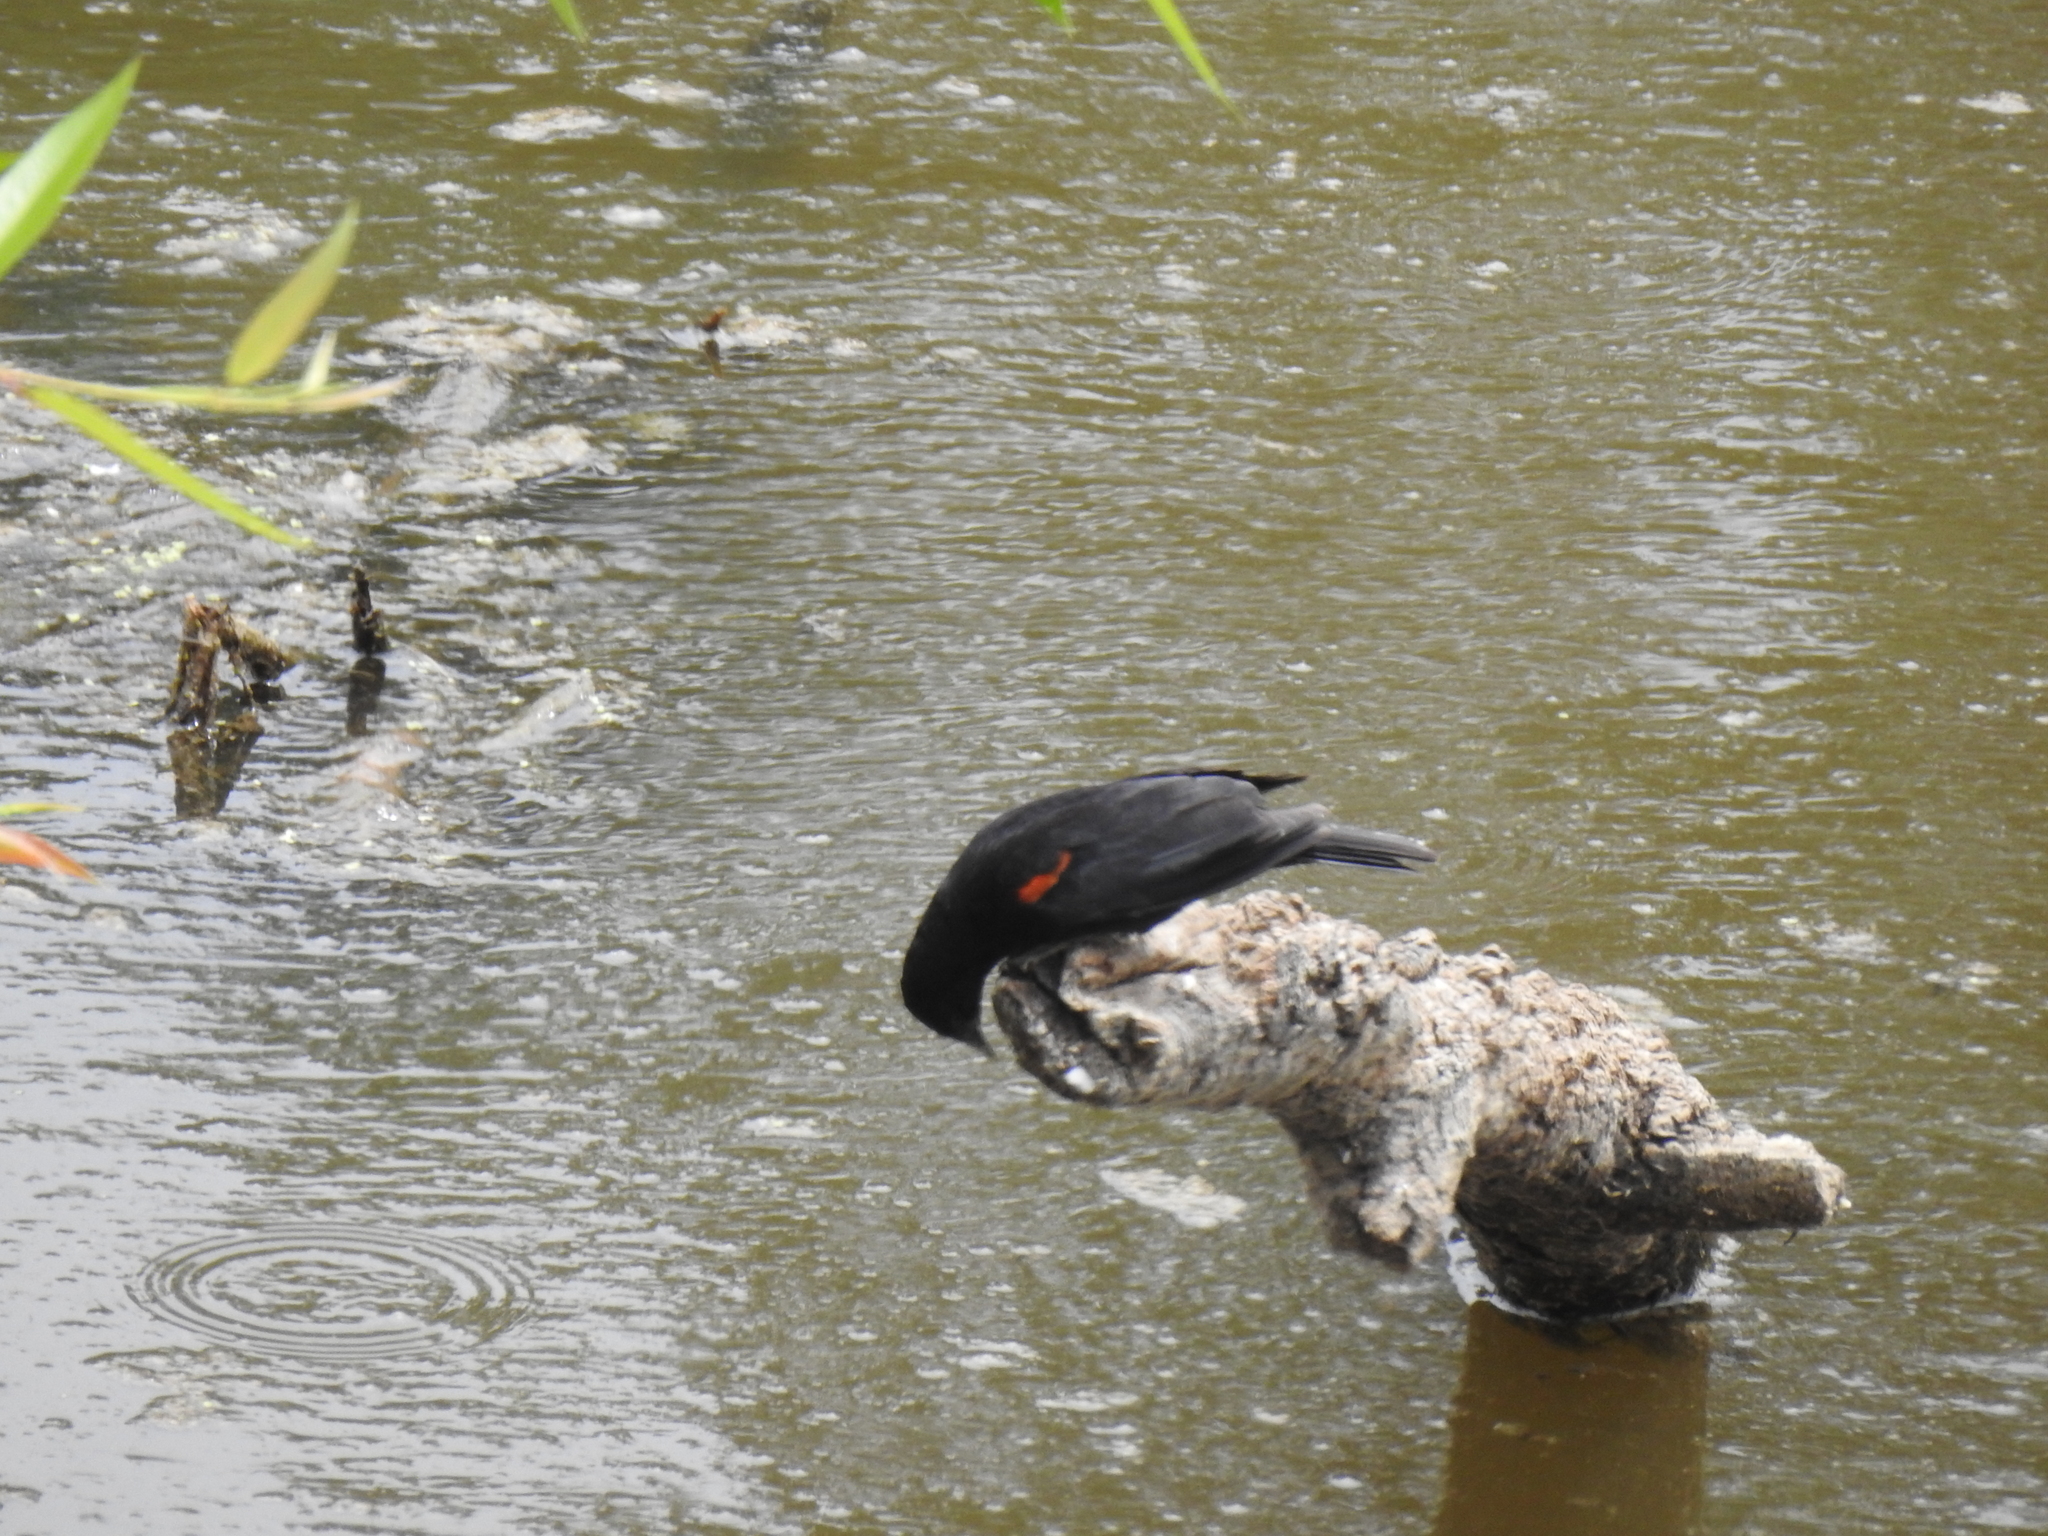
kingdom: Animalia
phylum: Chordata
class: Aves
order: Passeriformes
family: Icteridae
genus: Agelaius
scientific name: Agelaius phoeniceus
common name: Red-winged blackbird
